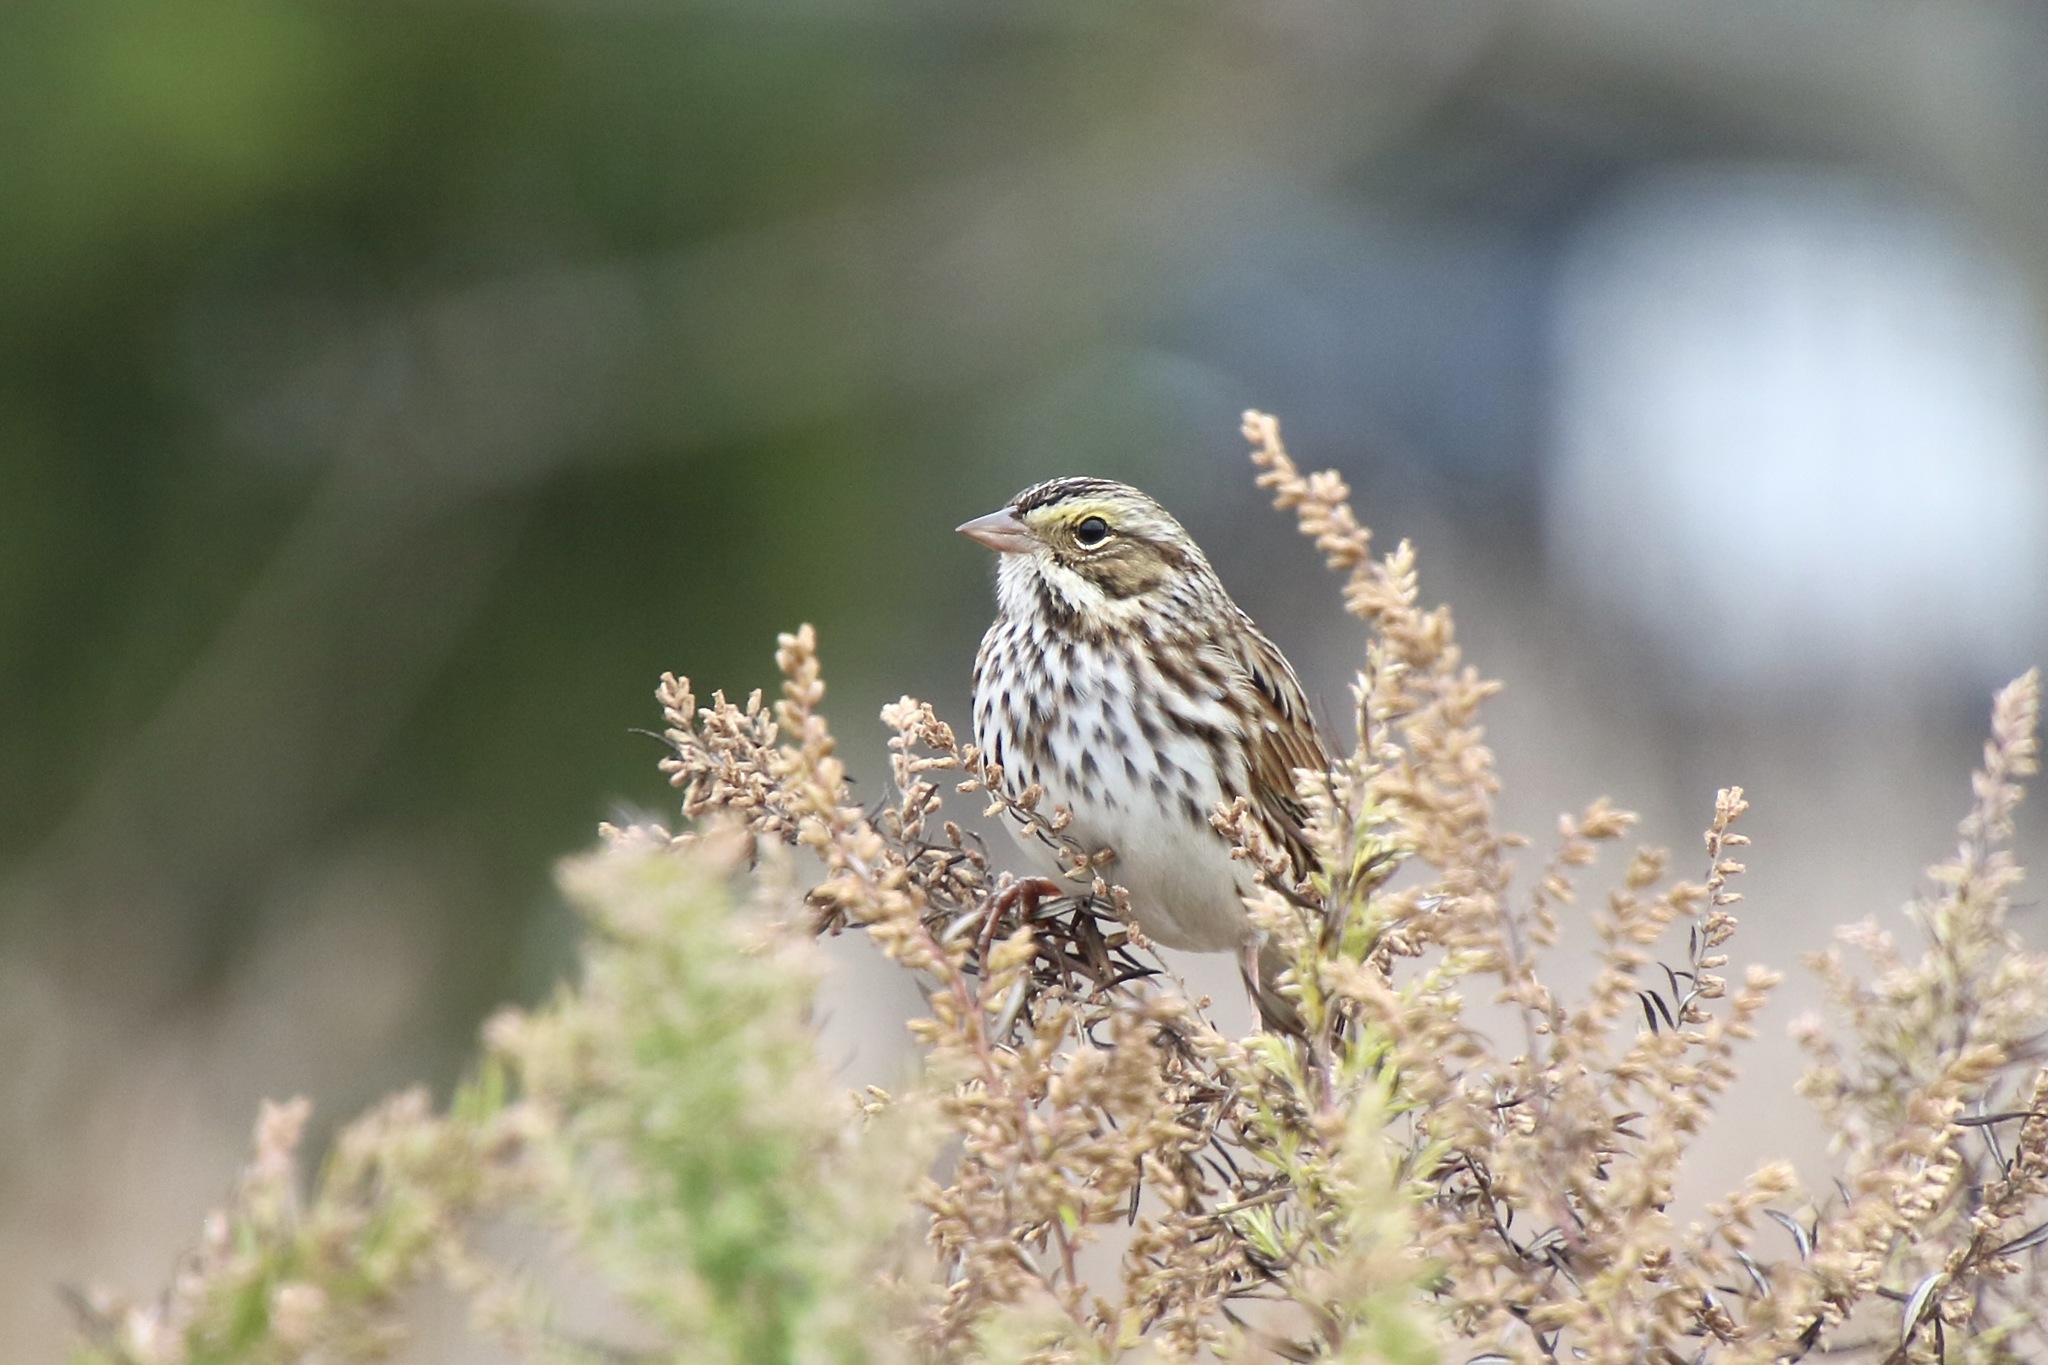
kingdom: Animalia
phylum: Chordata
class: Aves
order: Passeriformes
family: Passerellidae
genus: Passerculus
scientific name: Passerculus sandwichensis
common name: Savannah sparrow
